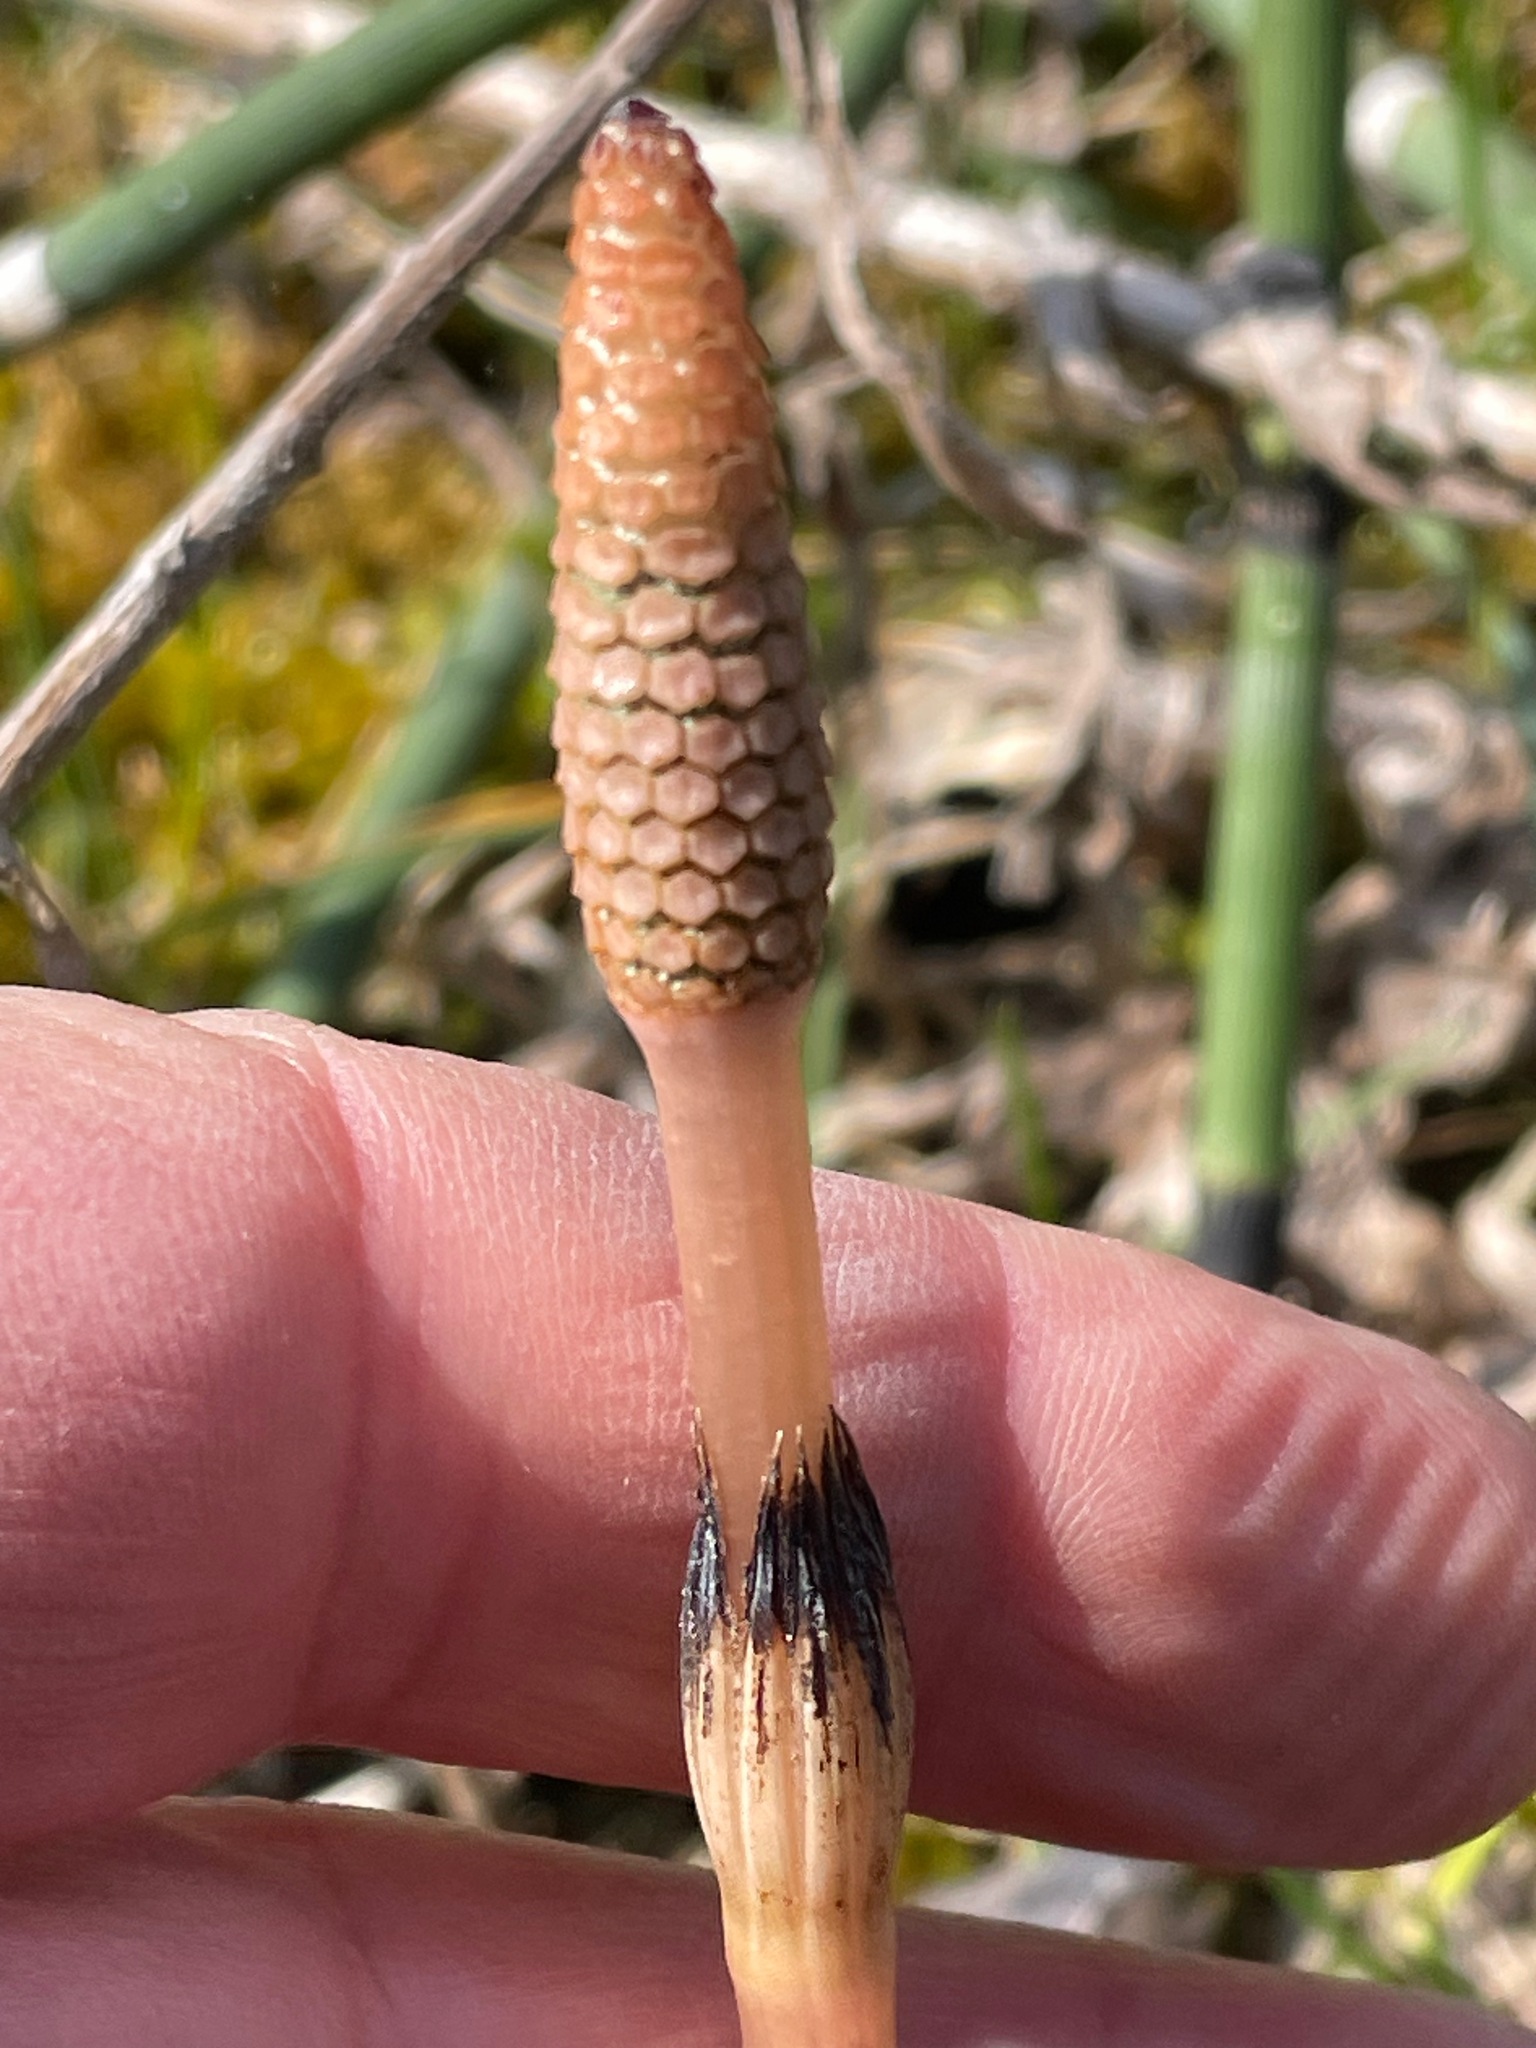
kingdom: Plantae
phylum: Tracheophyta
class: Polypodiopsida
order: Equisetales
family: Equisetaceae
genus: Equisetum
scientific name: Equisetum arvense
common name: Field horsetail
